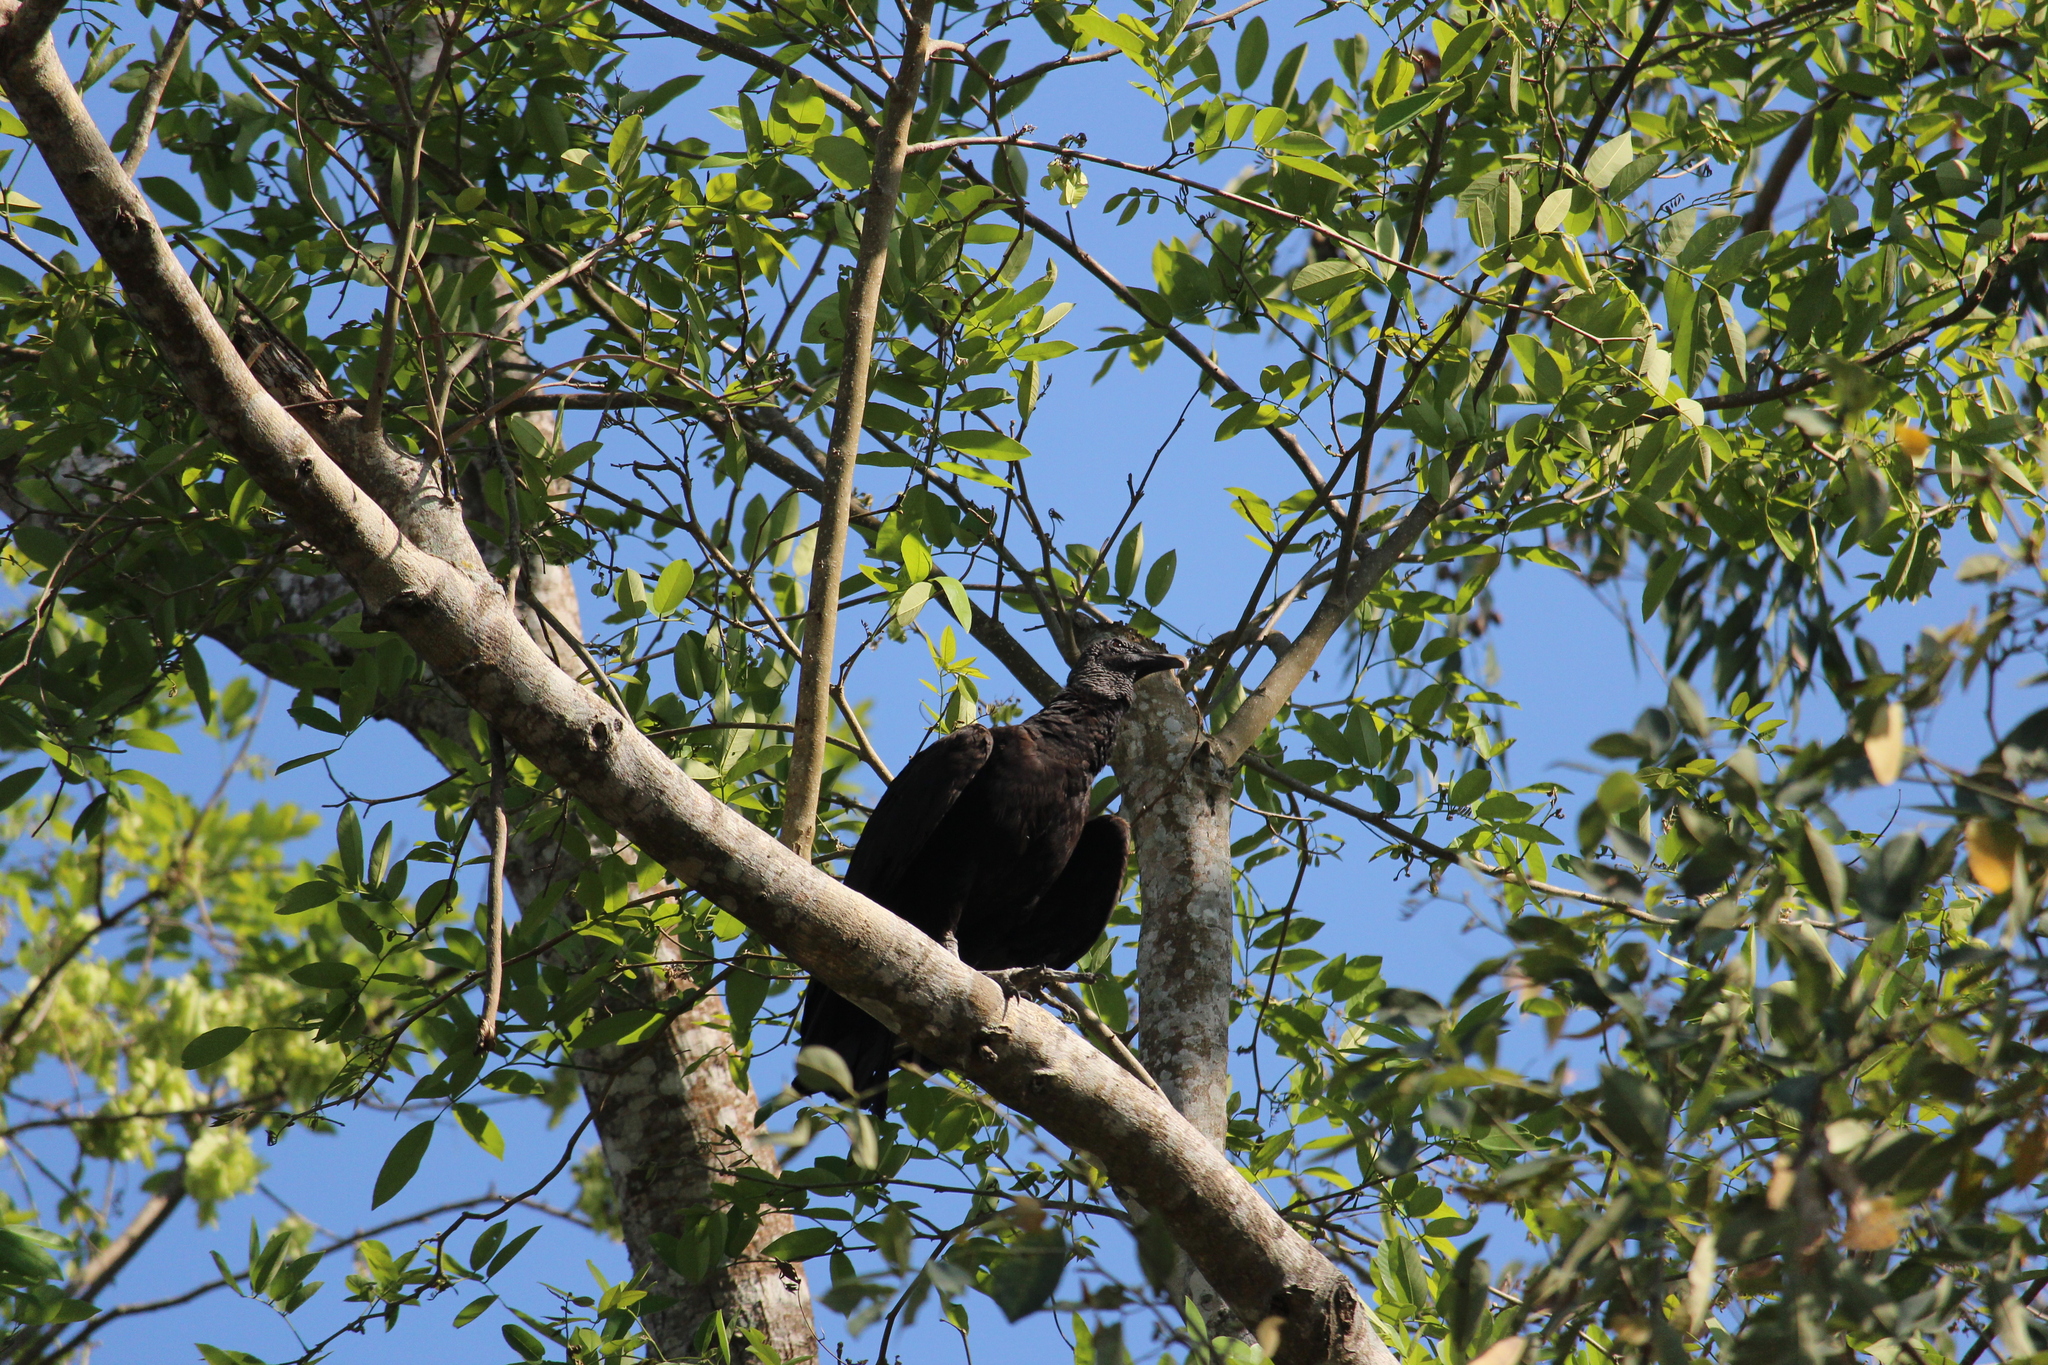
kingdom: Animalia
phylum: Chordata
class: Aves
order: Accipitriformes
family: Cathartidae
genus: Coragyps
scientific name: Coragyps atratus
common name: Black vulture
